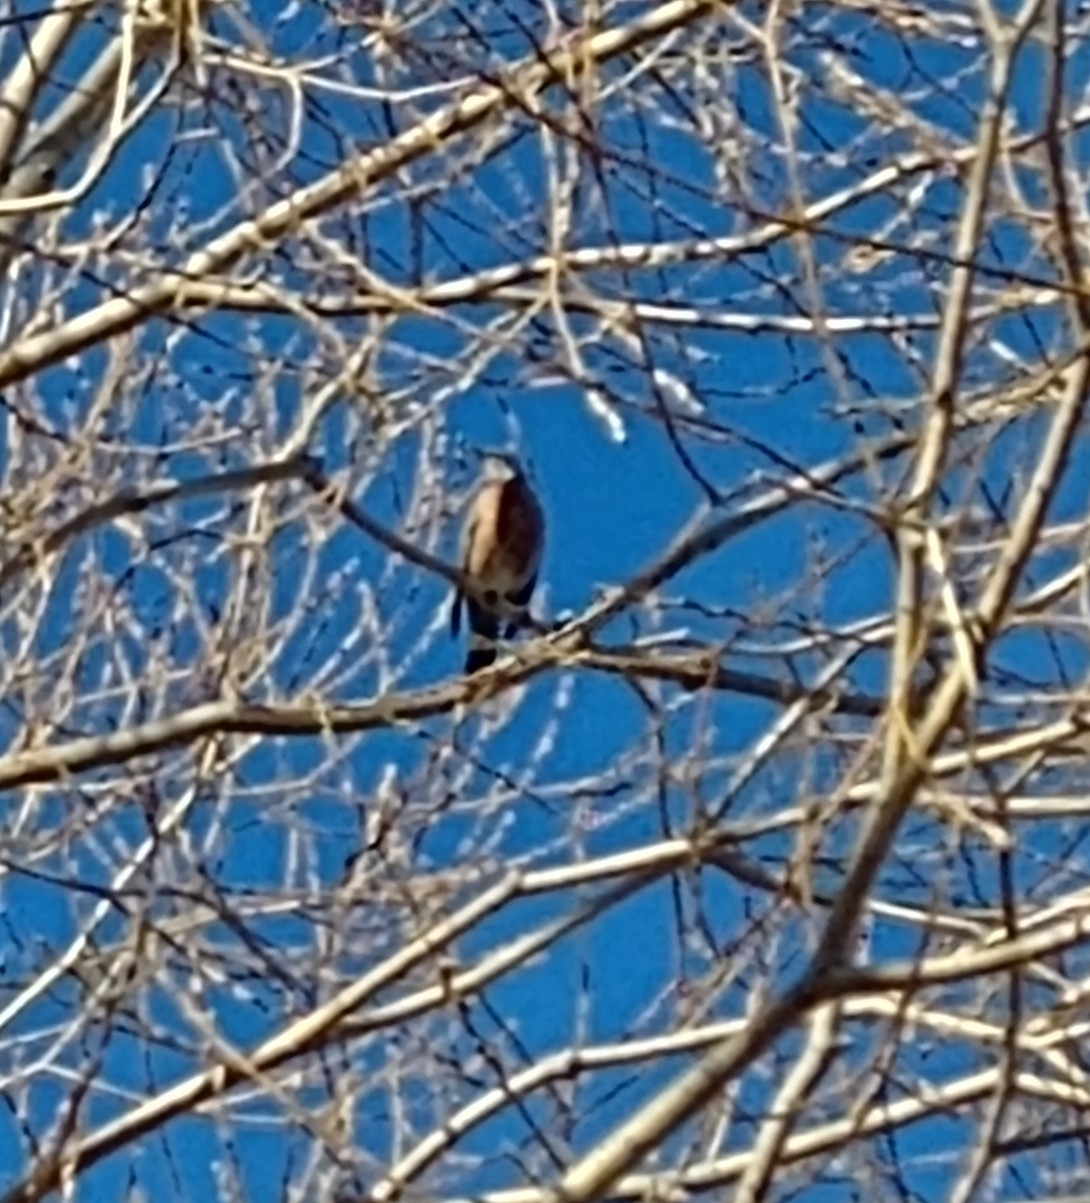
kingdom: Animalia
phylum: Chordata
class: Aves
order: Passeriformes
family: Turdidae
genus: Turdus
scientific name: Turdus migratorius
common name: American robin
